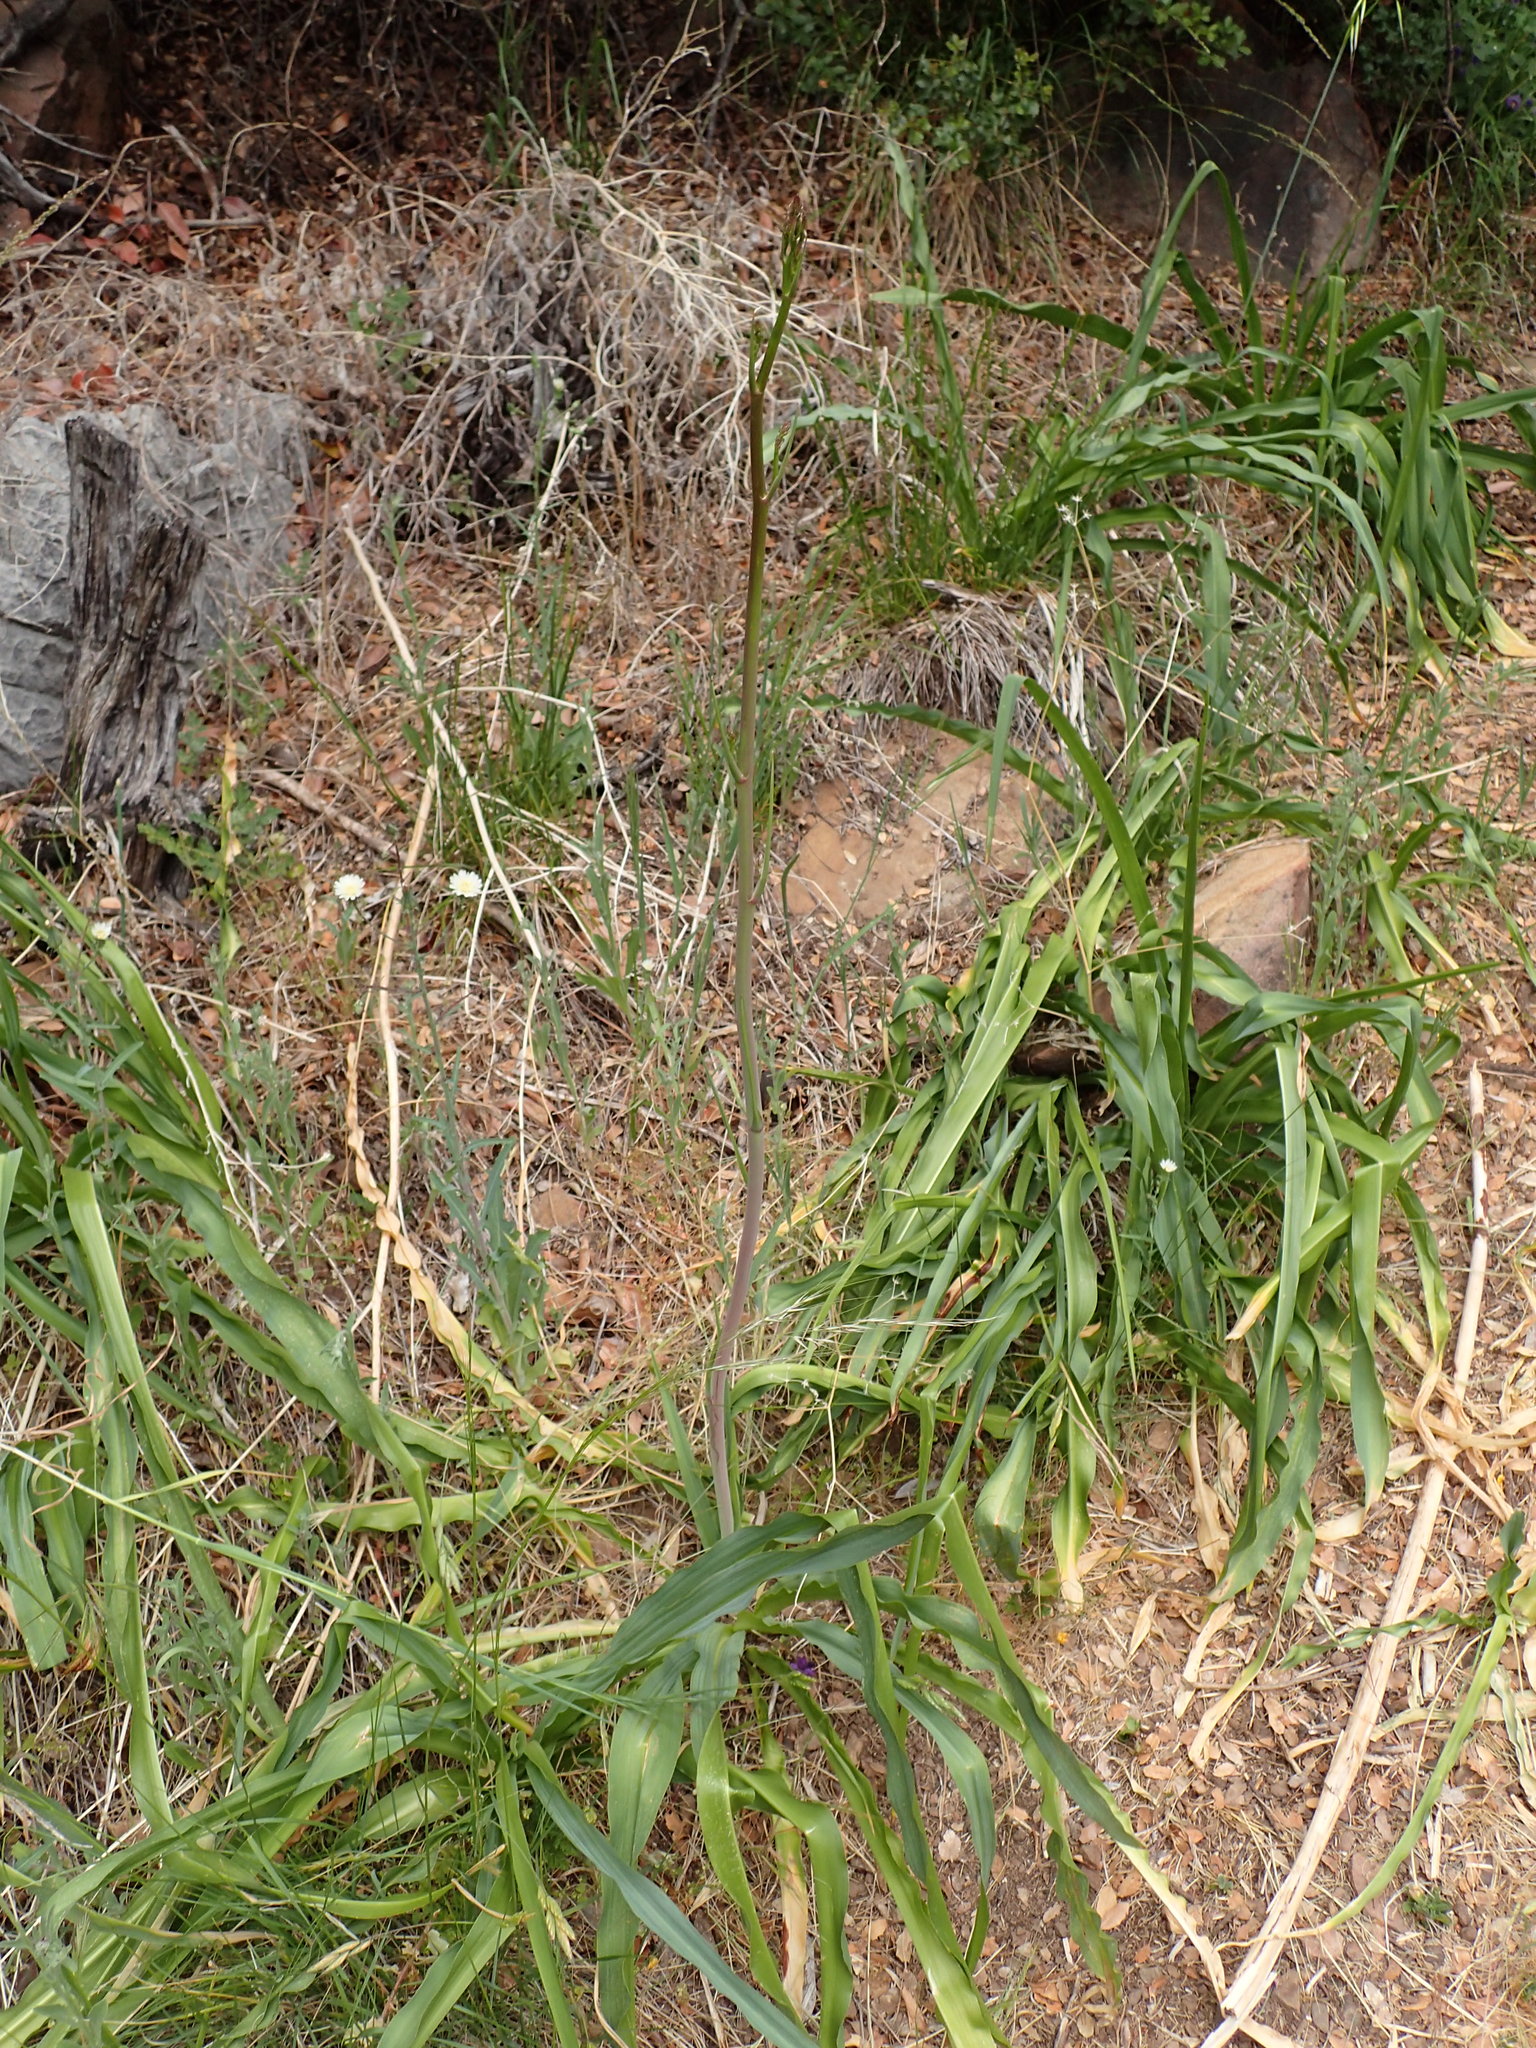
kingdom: Plantae
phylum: Tracheophyta
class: Liliopsida
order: Asparagales
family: Asparagaceae
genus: Chlorogalum
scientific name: Chlorogalum pomeridianum
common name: Amole
